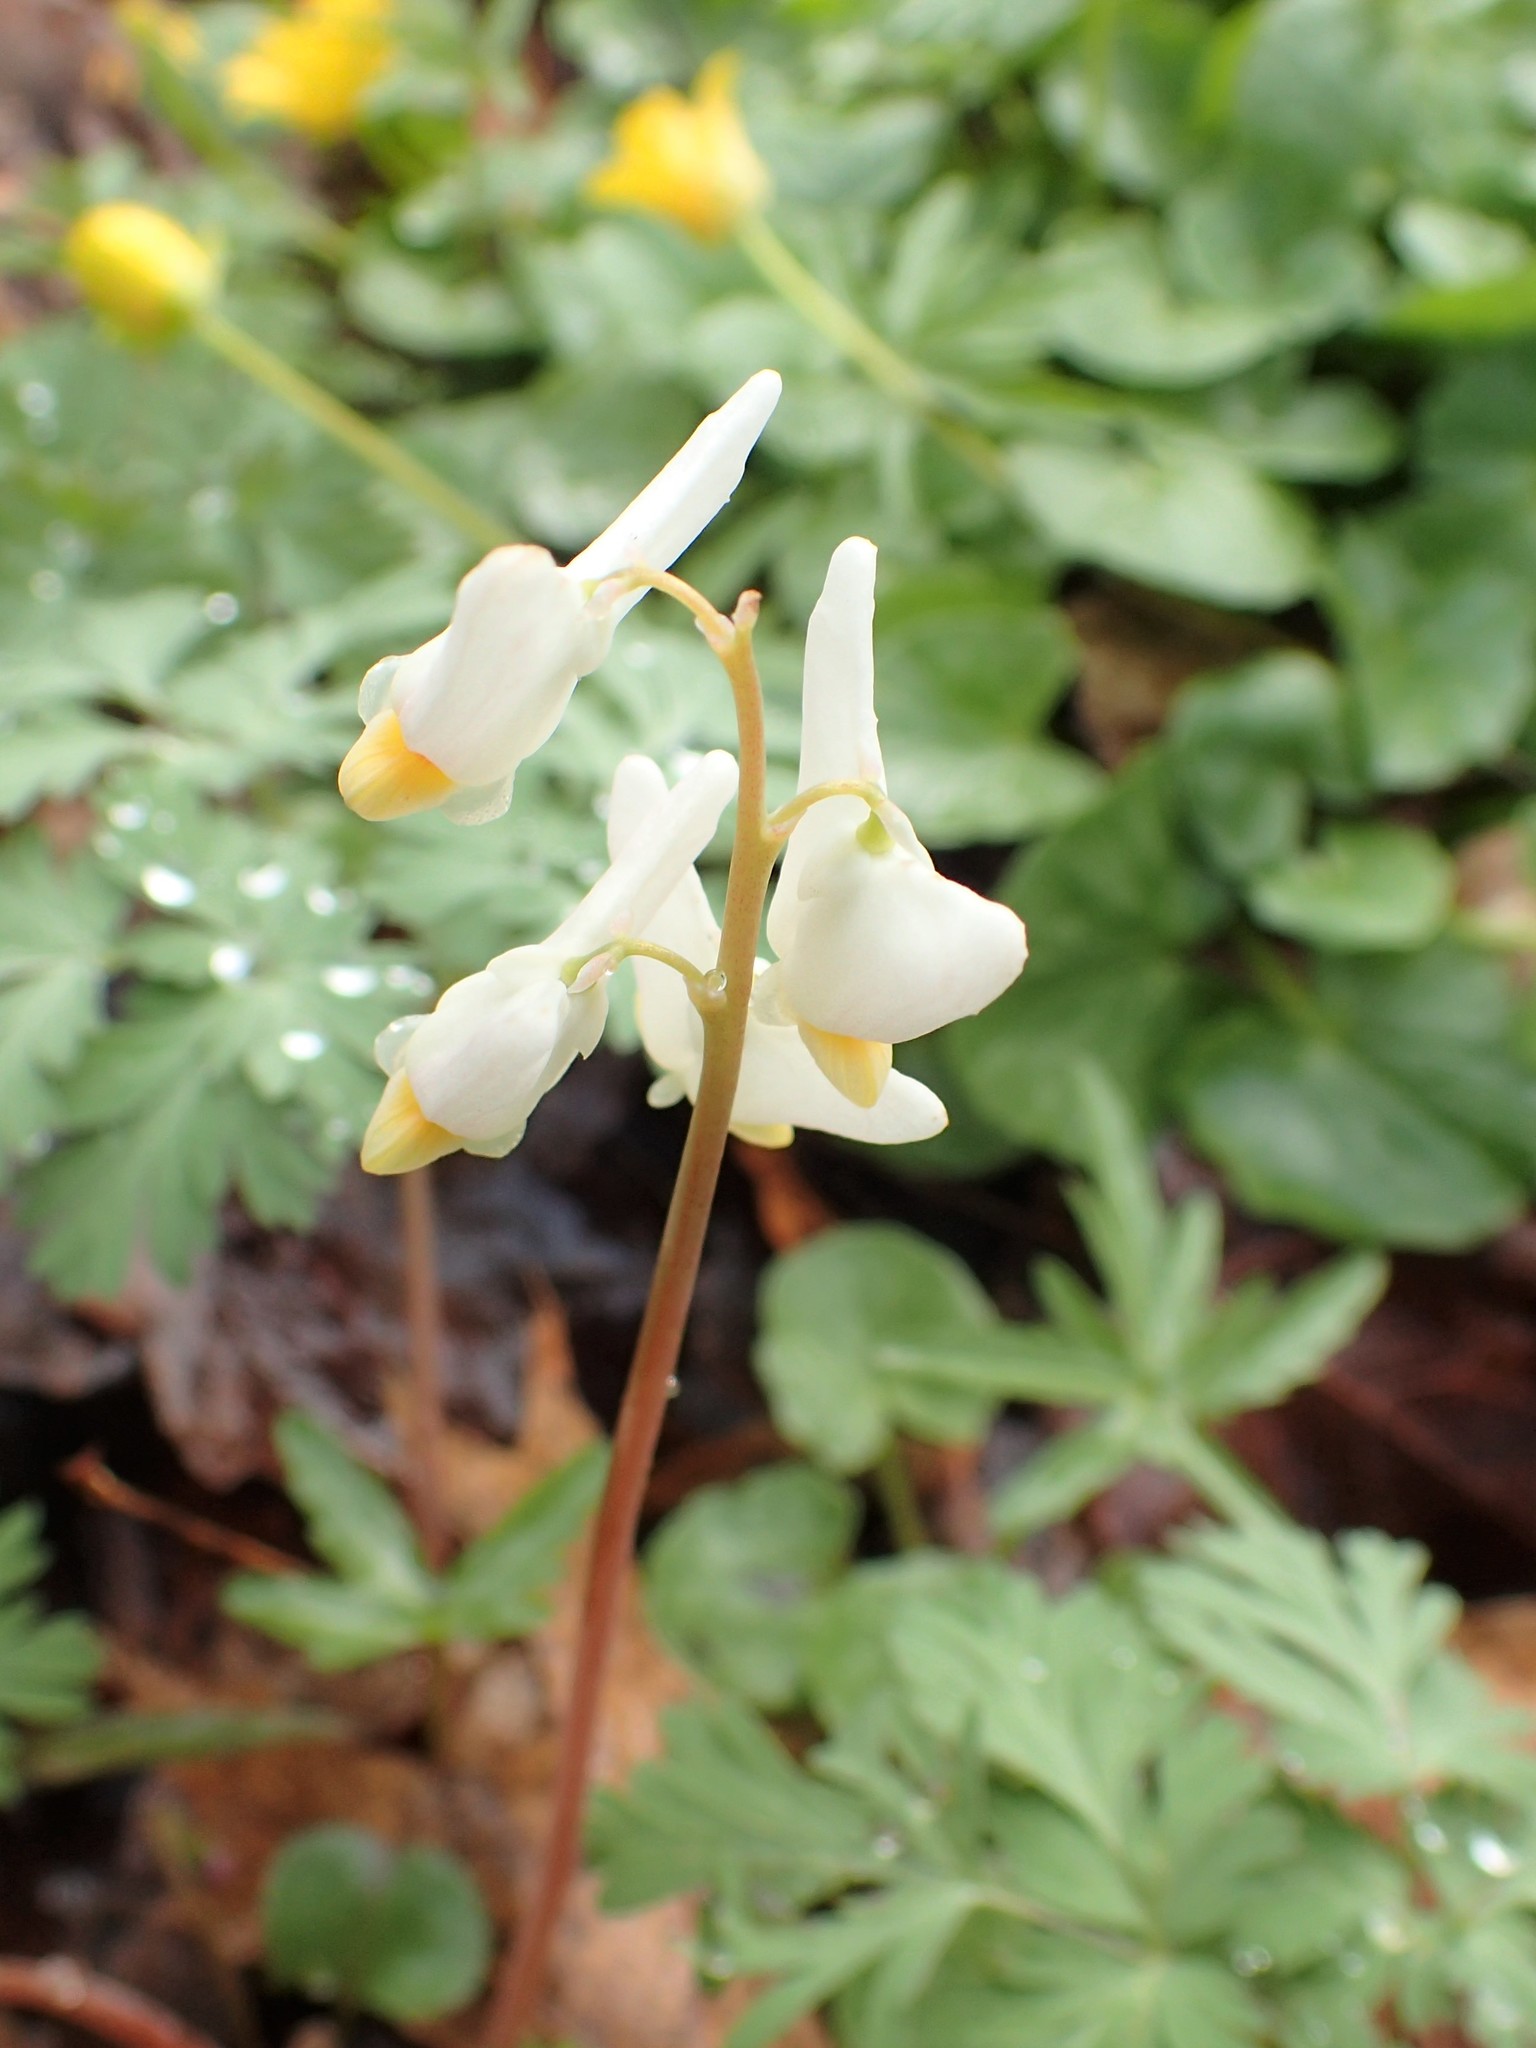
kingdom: Plantae
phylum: Tracheophyta
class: Magnoliopsida
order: Ranunculales
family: Papaveraceae
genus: Dicentra
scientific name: Dicentra cucullaria
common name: Dutchman's breeches
